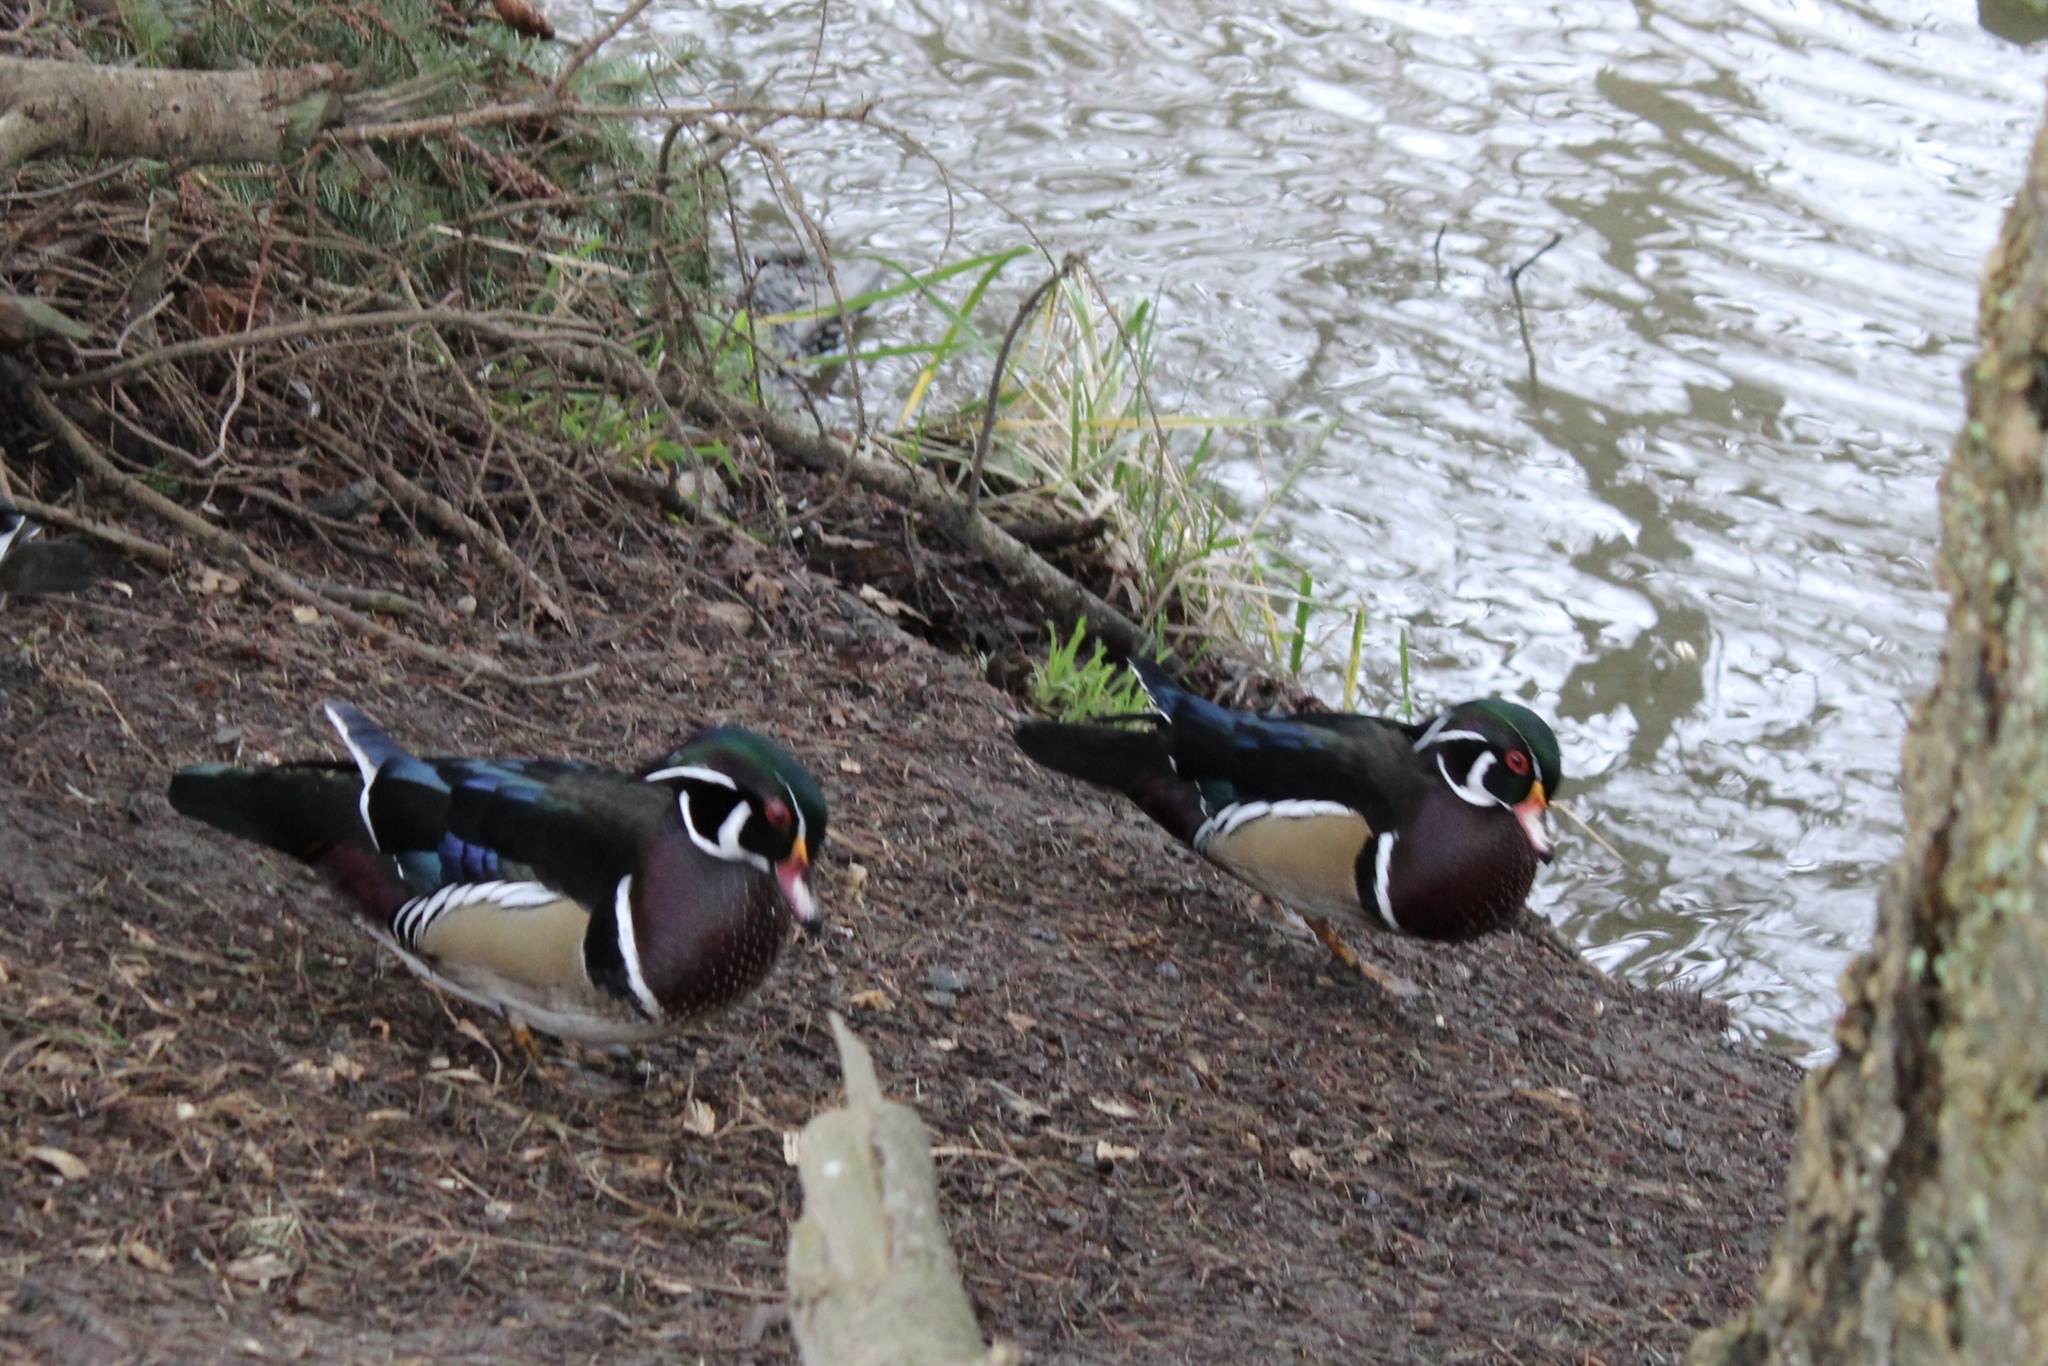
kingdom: Animalia
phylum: Chordata
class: Aves
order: Anseriformes
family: Anatidae
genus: Aix
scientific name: Aix sponsa
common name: Wood duck
